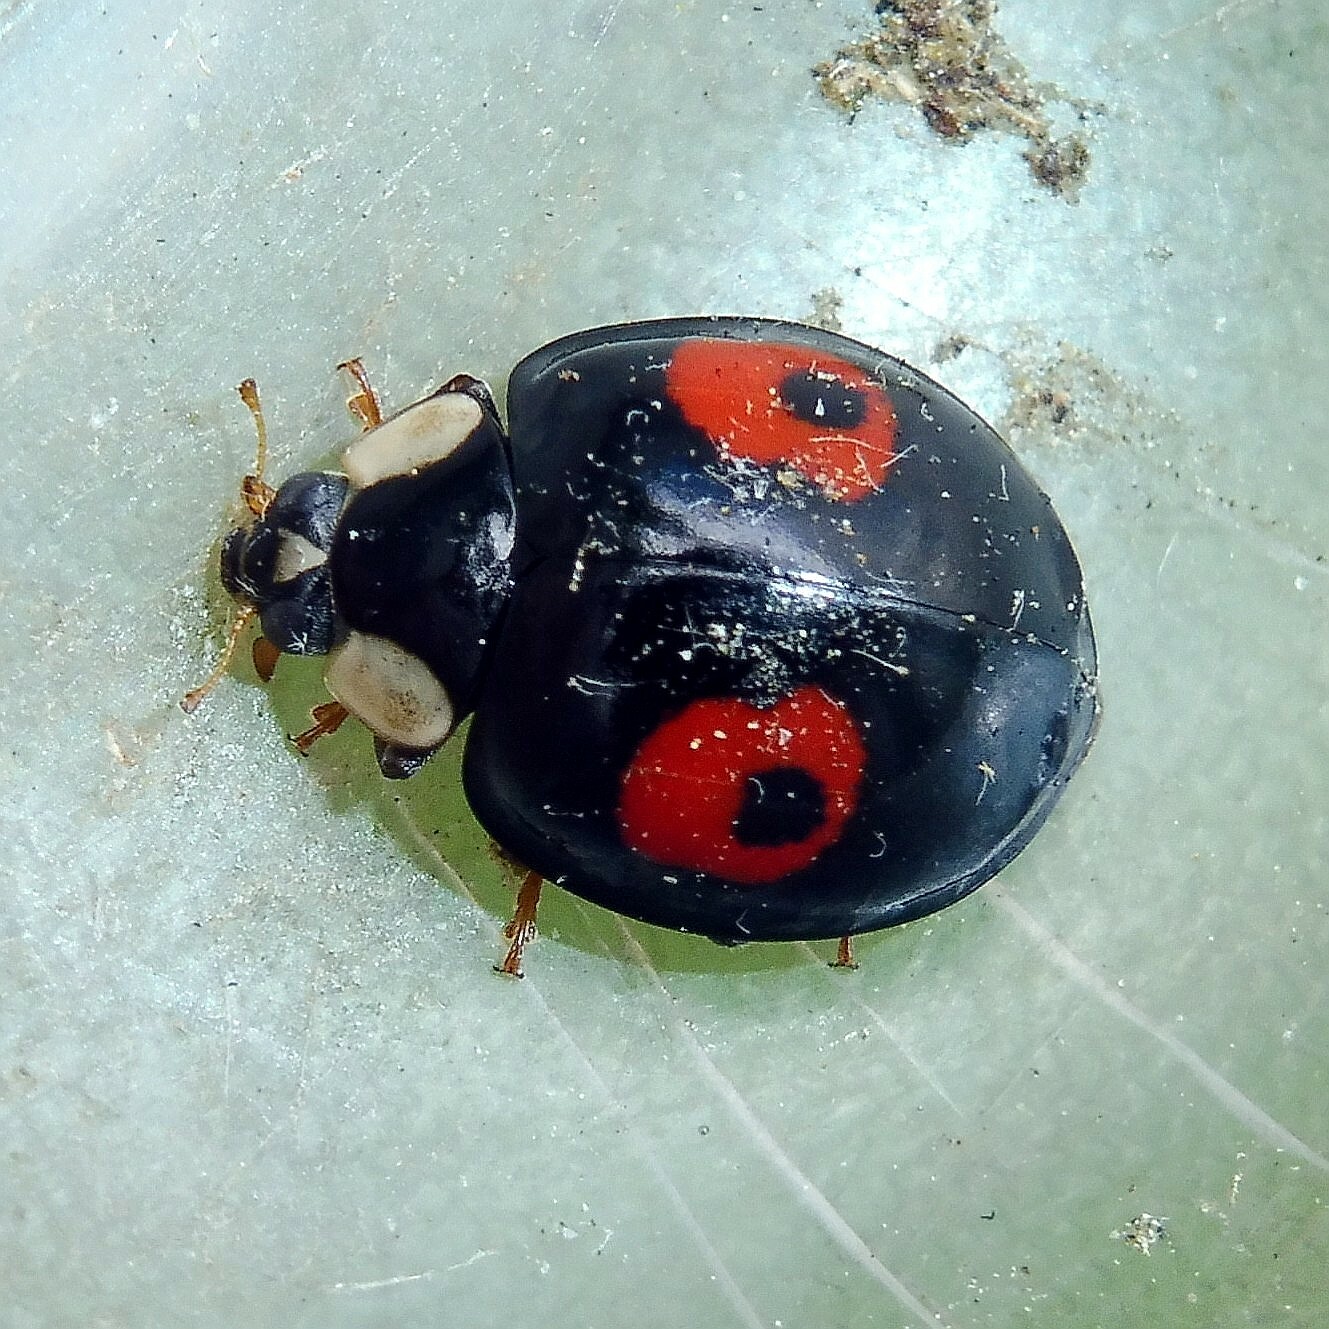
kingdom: Animalia
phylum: Arthropoda
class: Insecta
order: Coleoptera
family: Coccinellidae
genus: Harmonia
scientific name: Harmonia axyridis
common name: Harlequin ladybird
